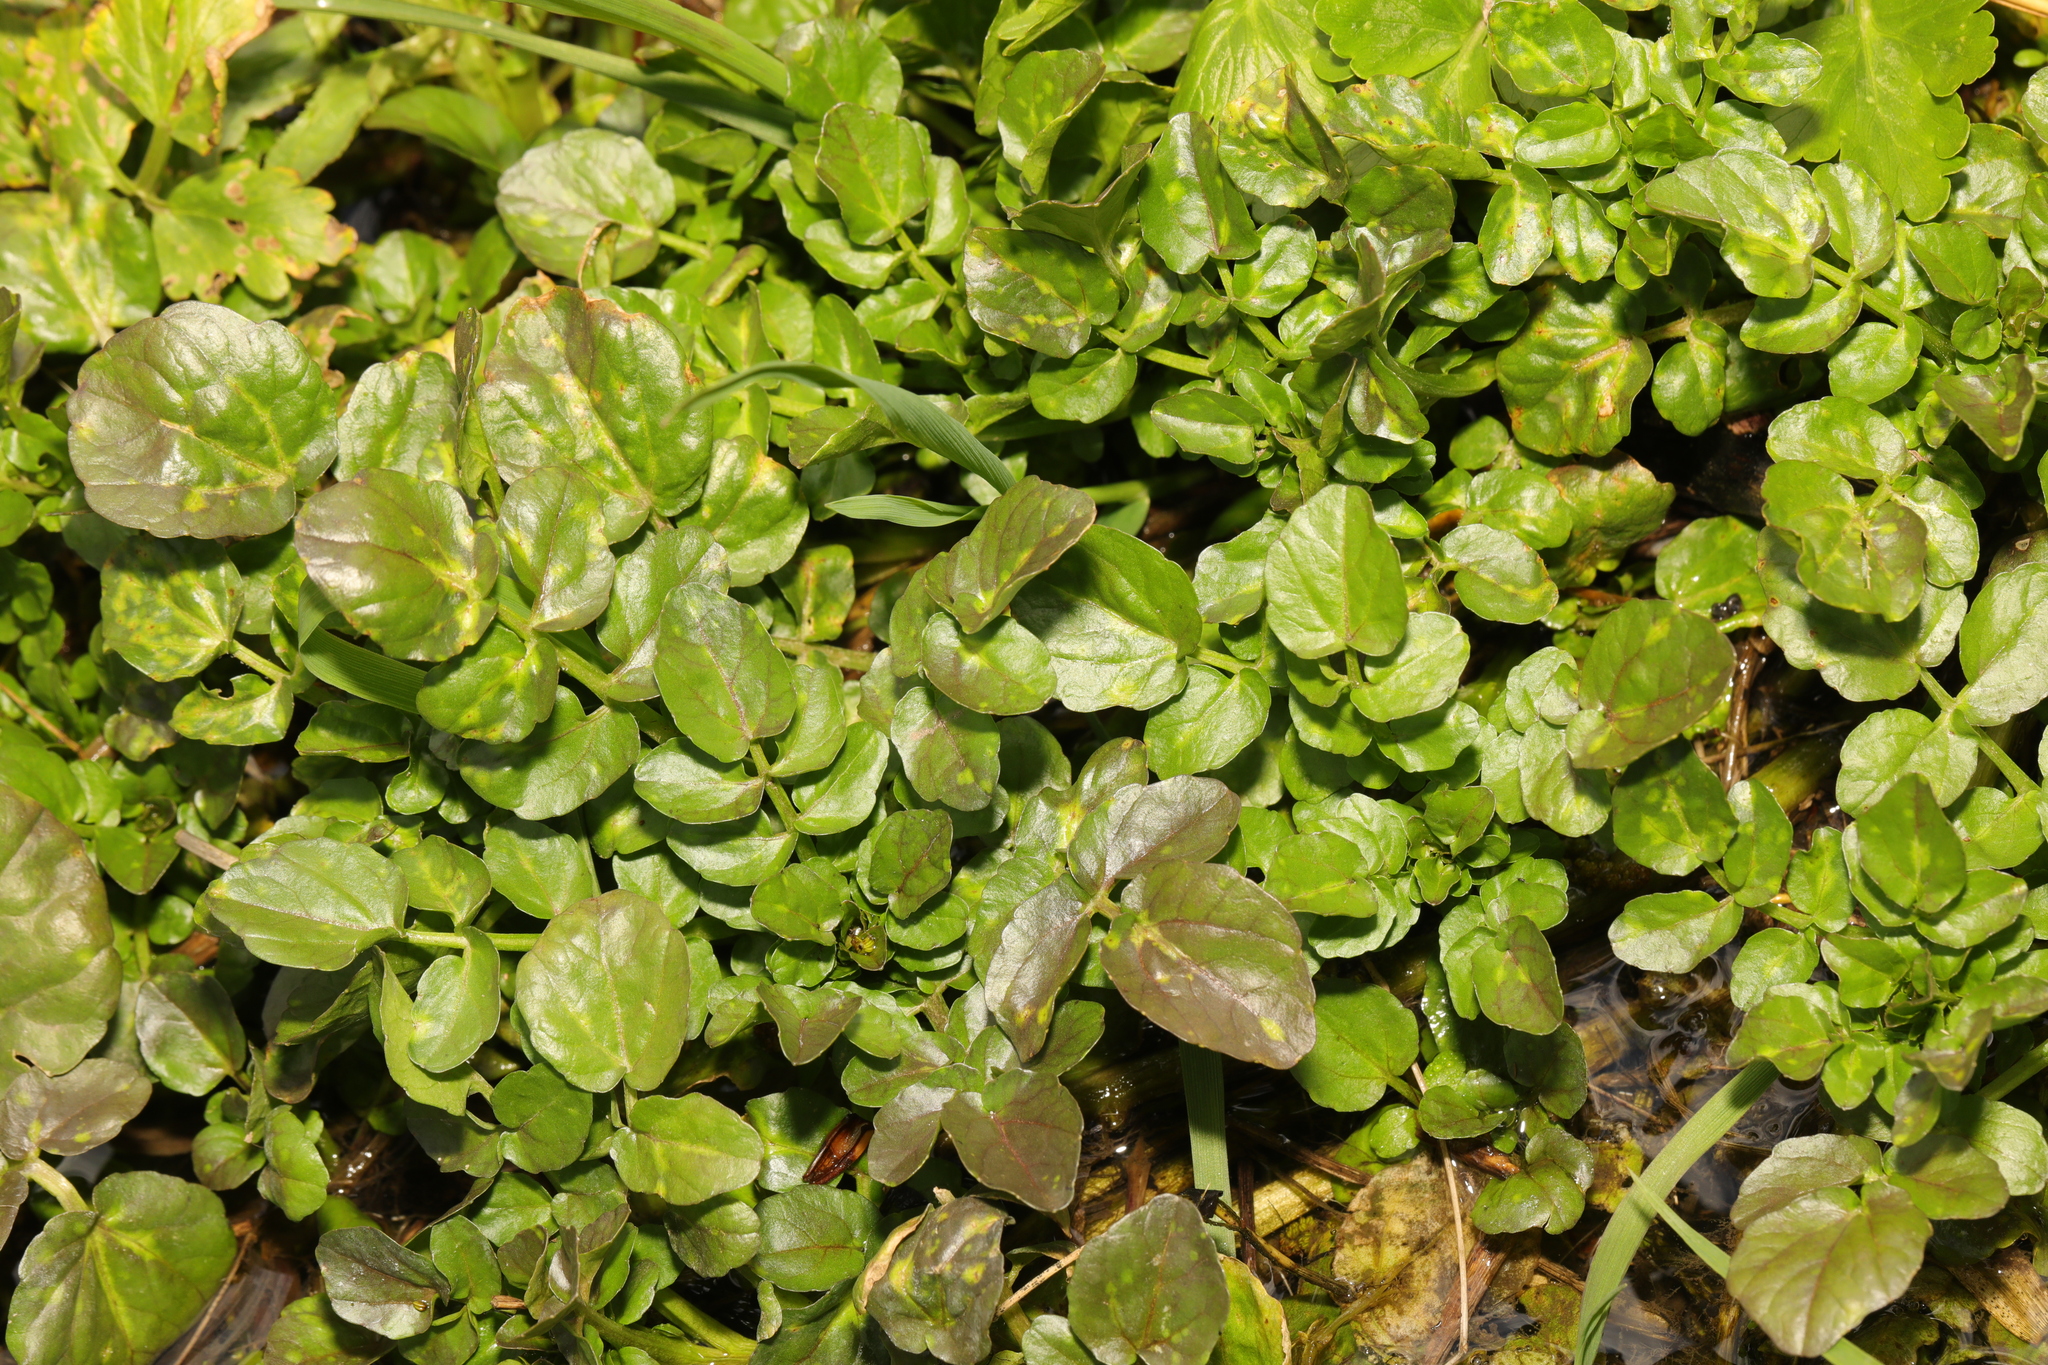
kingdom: Plantae
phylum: Tracheophyta
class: Magnoliopsida
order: Brassicales
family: Brassicaceae
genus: Nasturtium
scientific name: Nasturtium officinale
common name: Watercress
